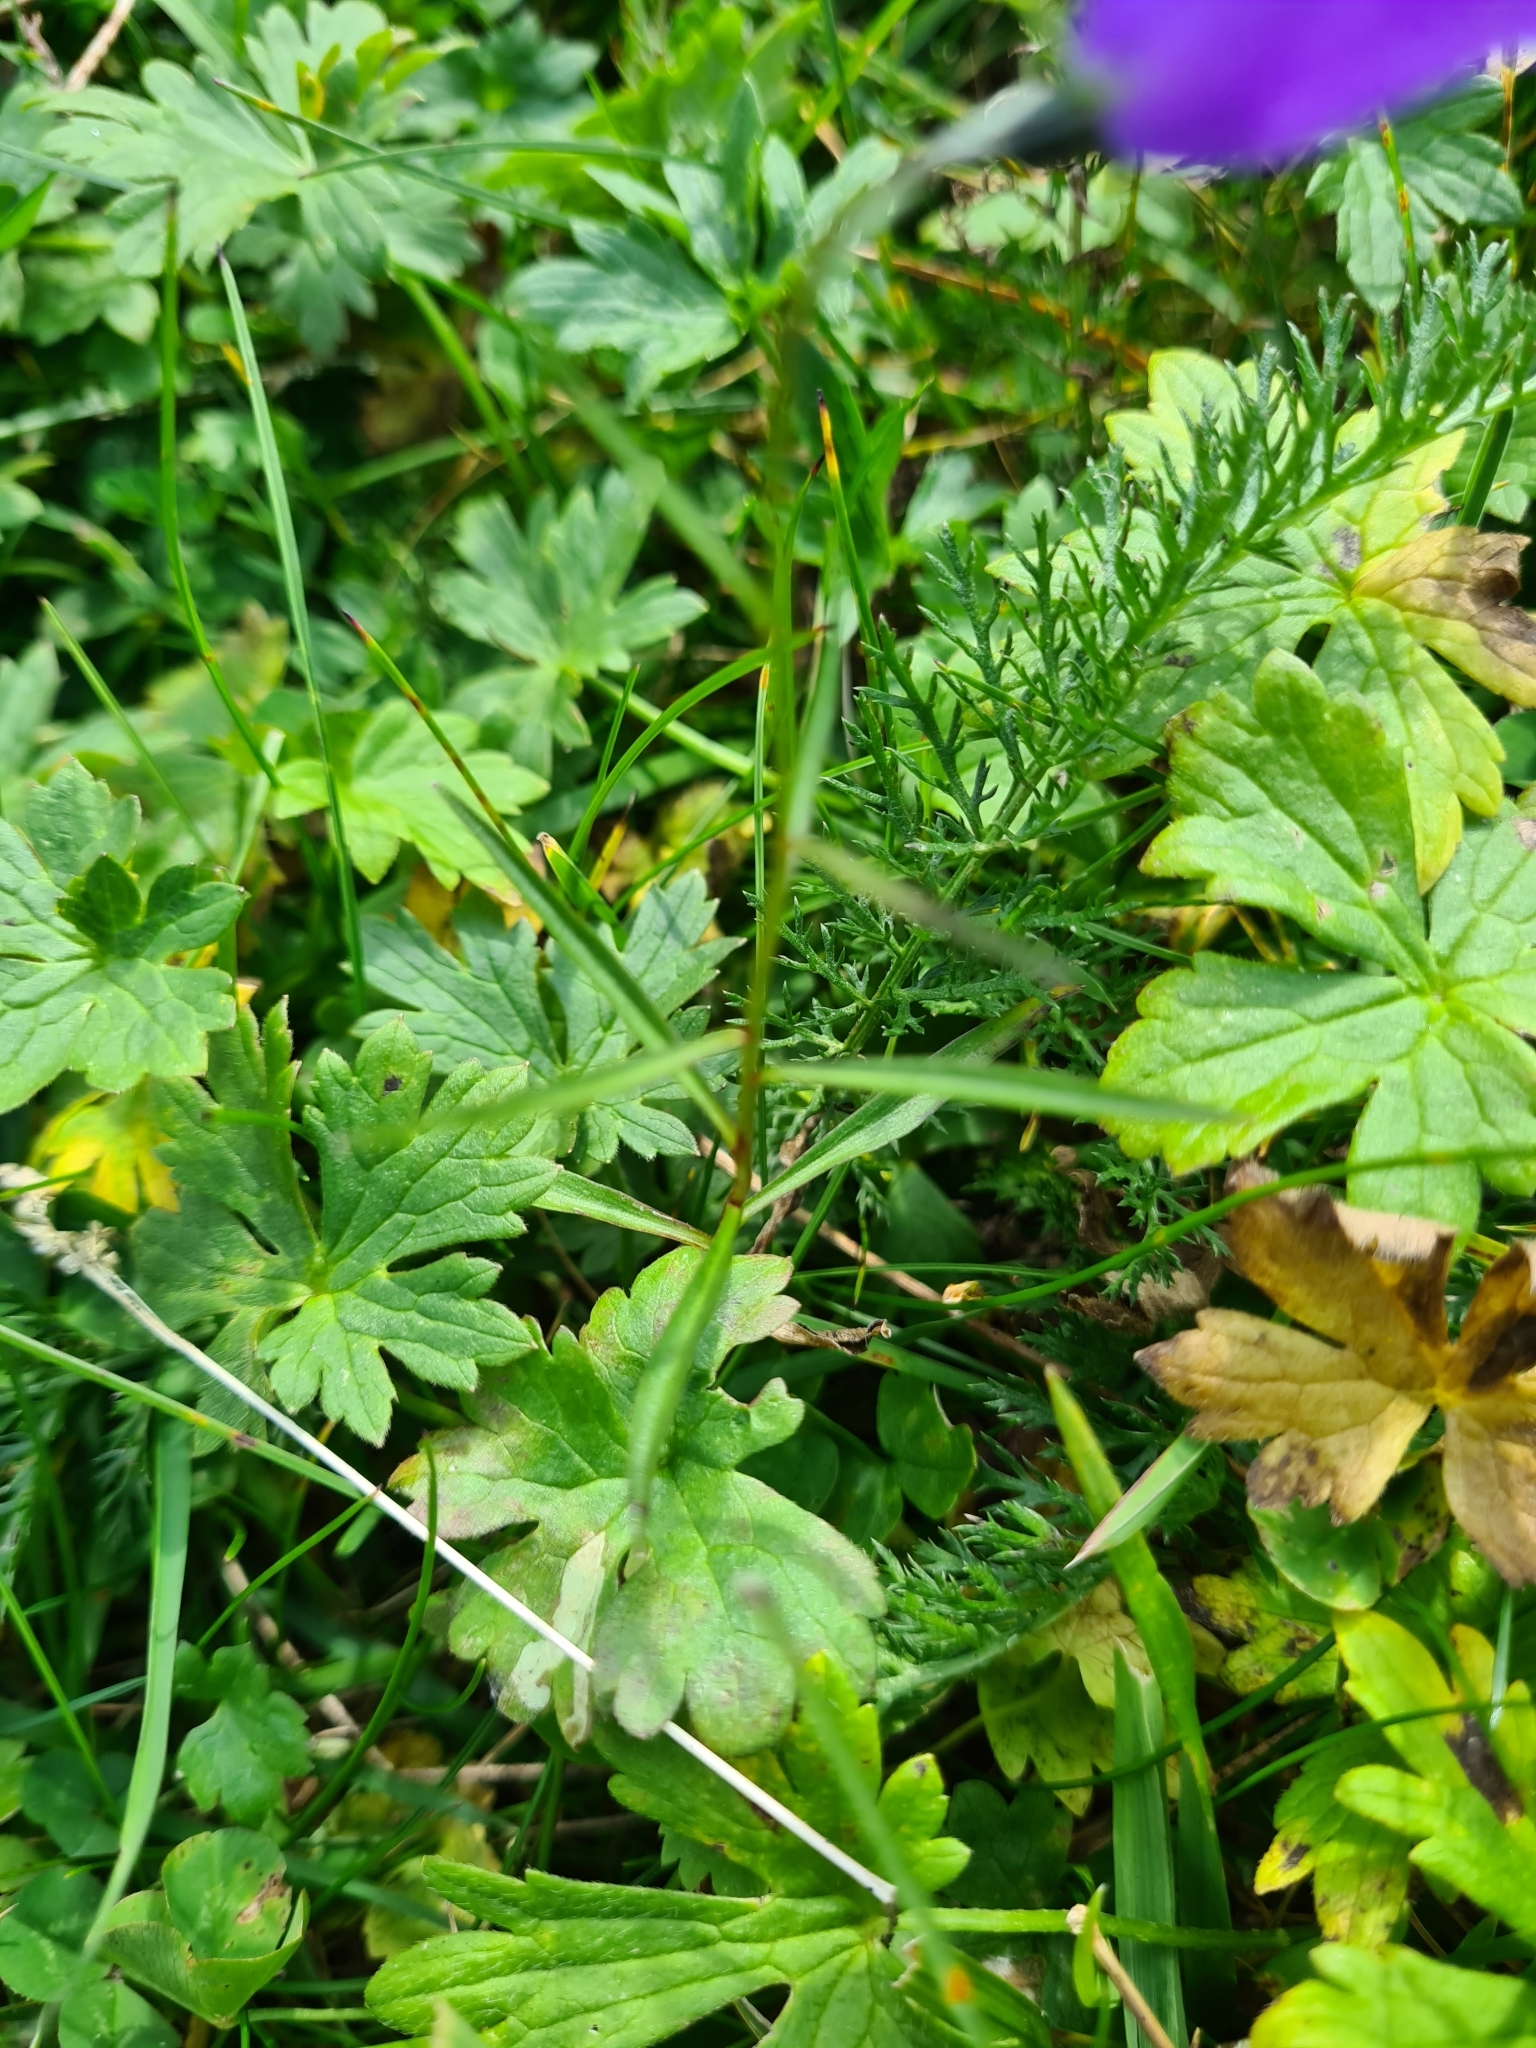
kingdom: Plantae
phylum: Tracheophyta
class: Magnoliopsida
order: Asterales
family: Campanulaceae
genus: Campanula
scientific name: Campanula scheuchzeri
